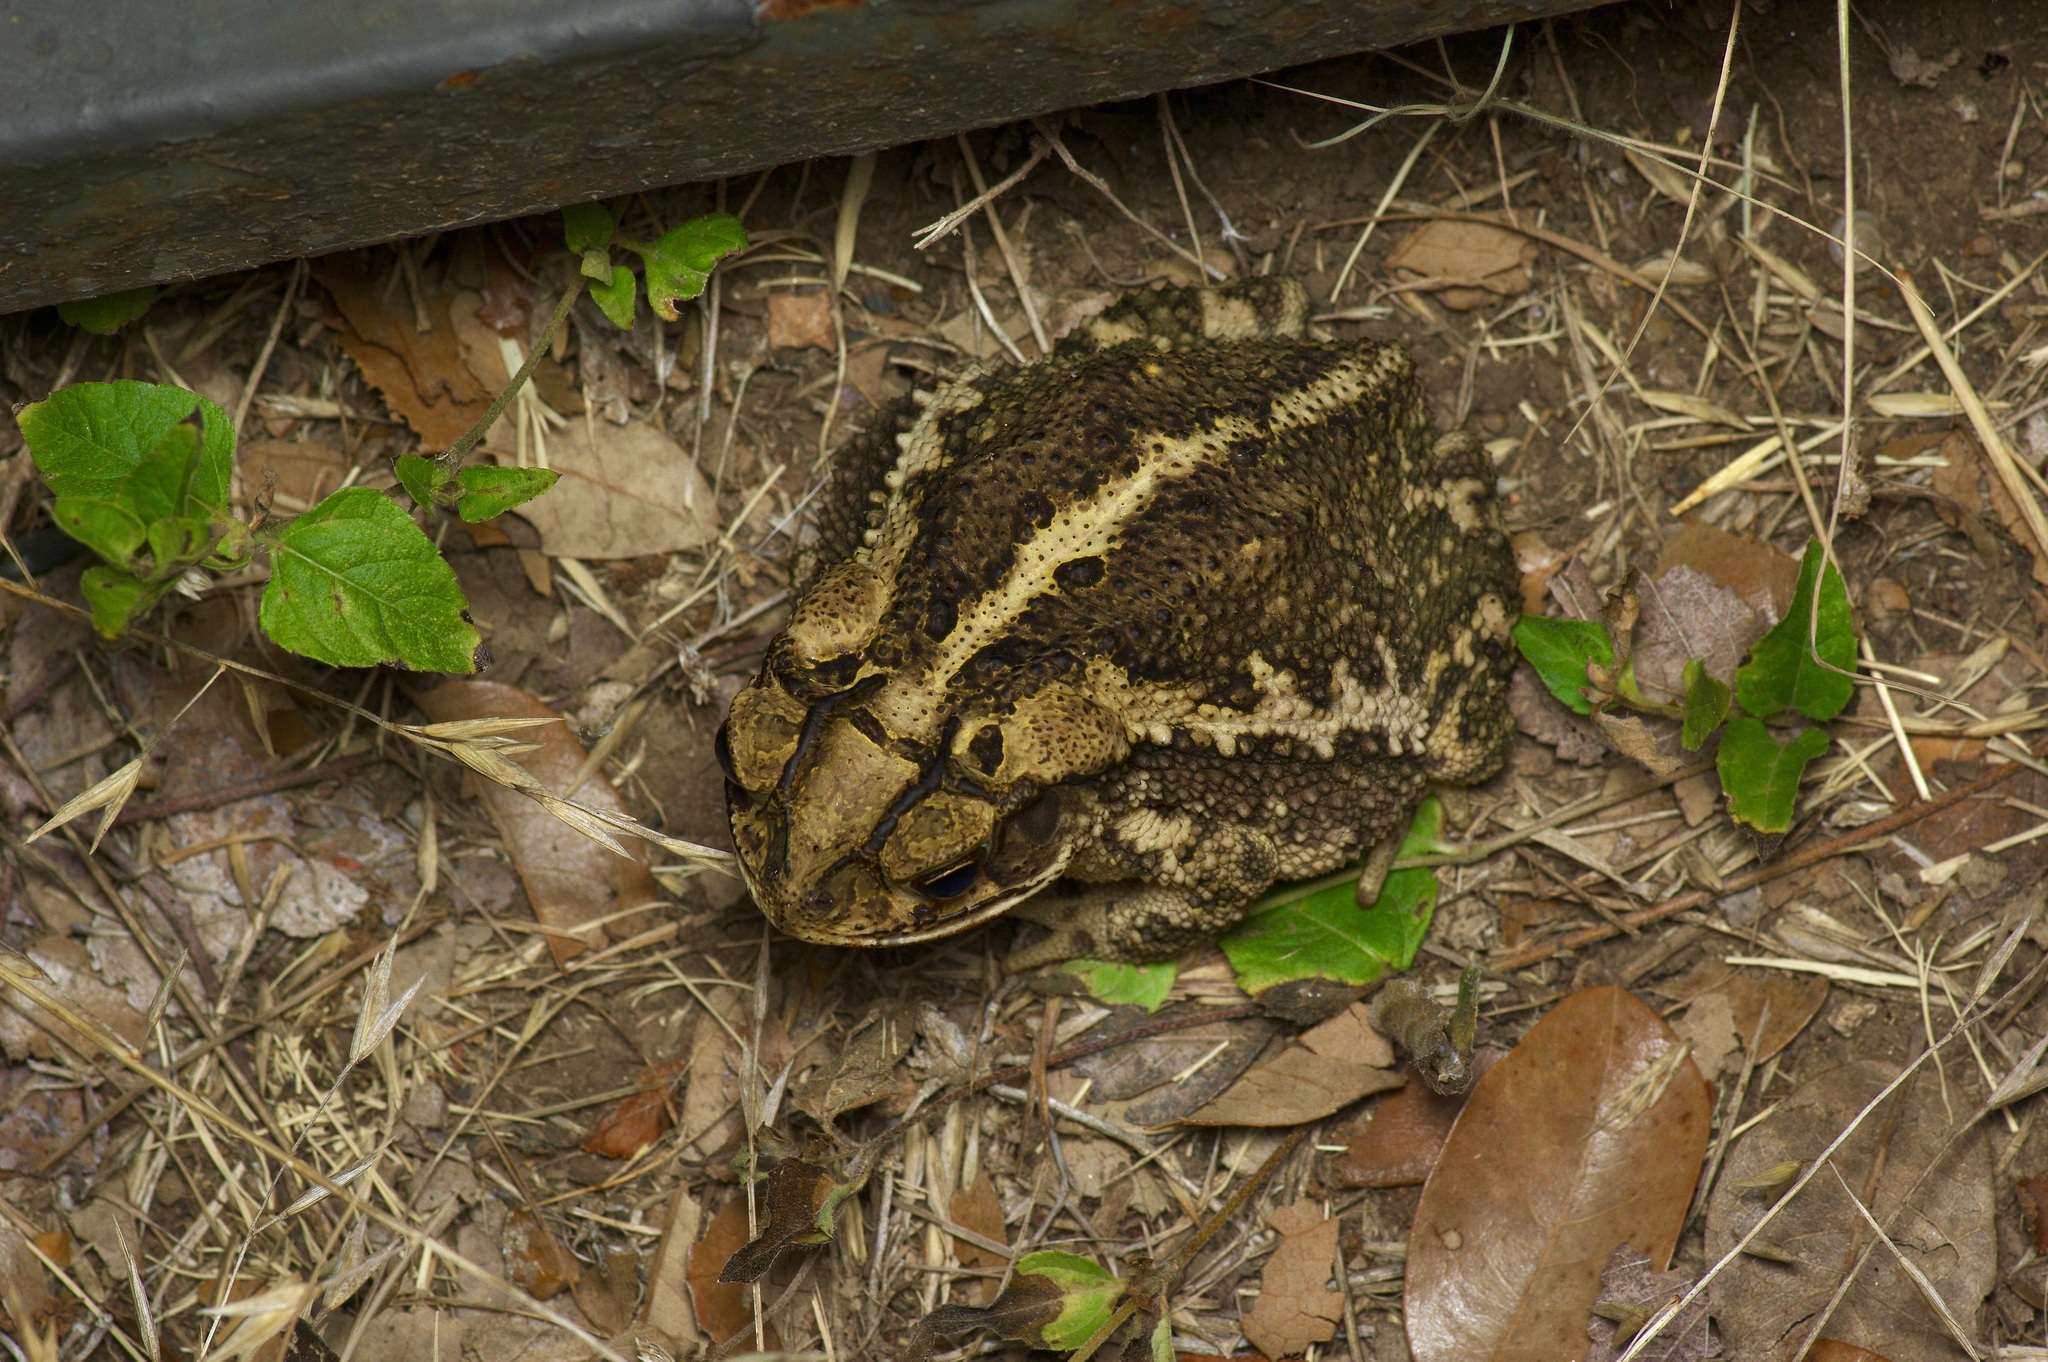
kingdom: Animalia
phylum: Chordata
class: Amphibia
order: Anura
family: Bufonidae
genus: Incilius
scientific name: Incilius nebulifer
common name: Gulf coast toad
